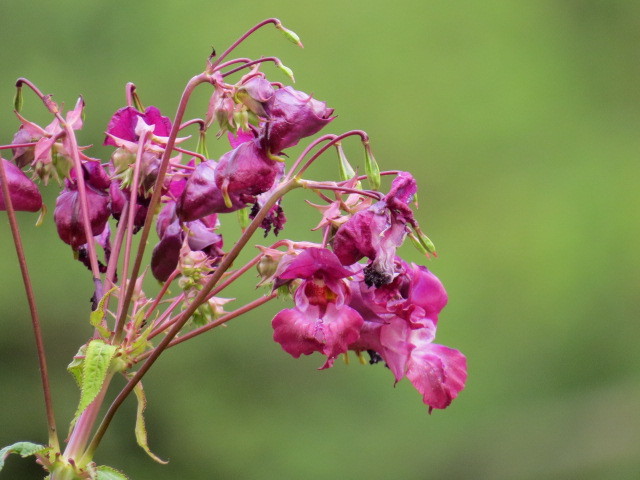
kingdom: Plantae
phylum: Tracheophyta
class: Magnoliopsida
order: Ericales
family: Balsaminaceae
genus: Impatiens
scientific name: Impatiens glandulifera
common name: Himalayan balsam
